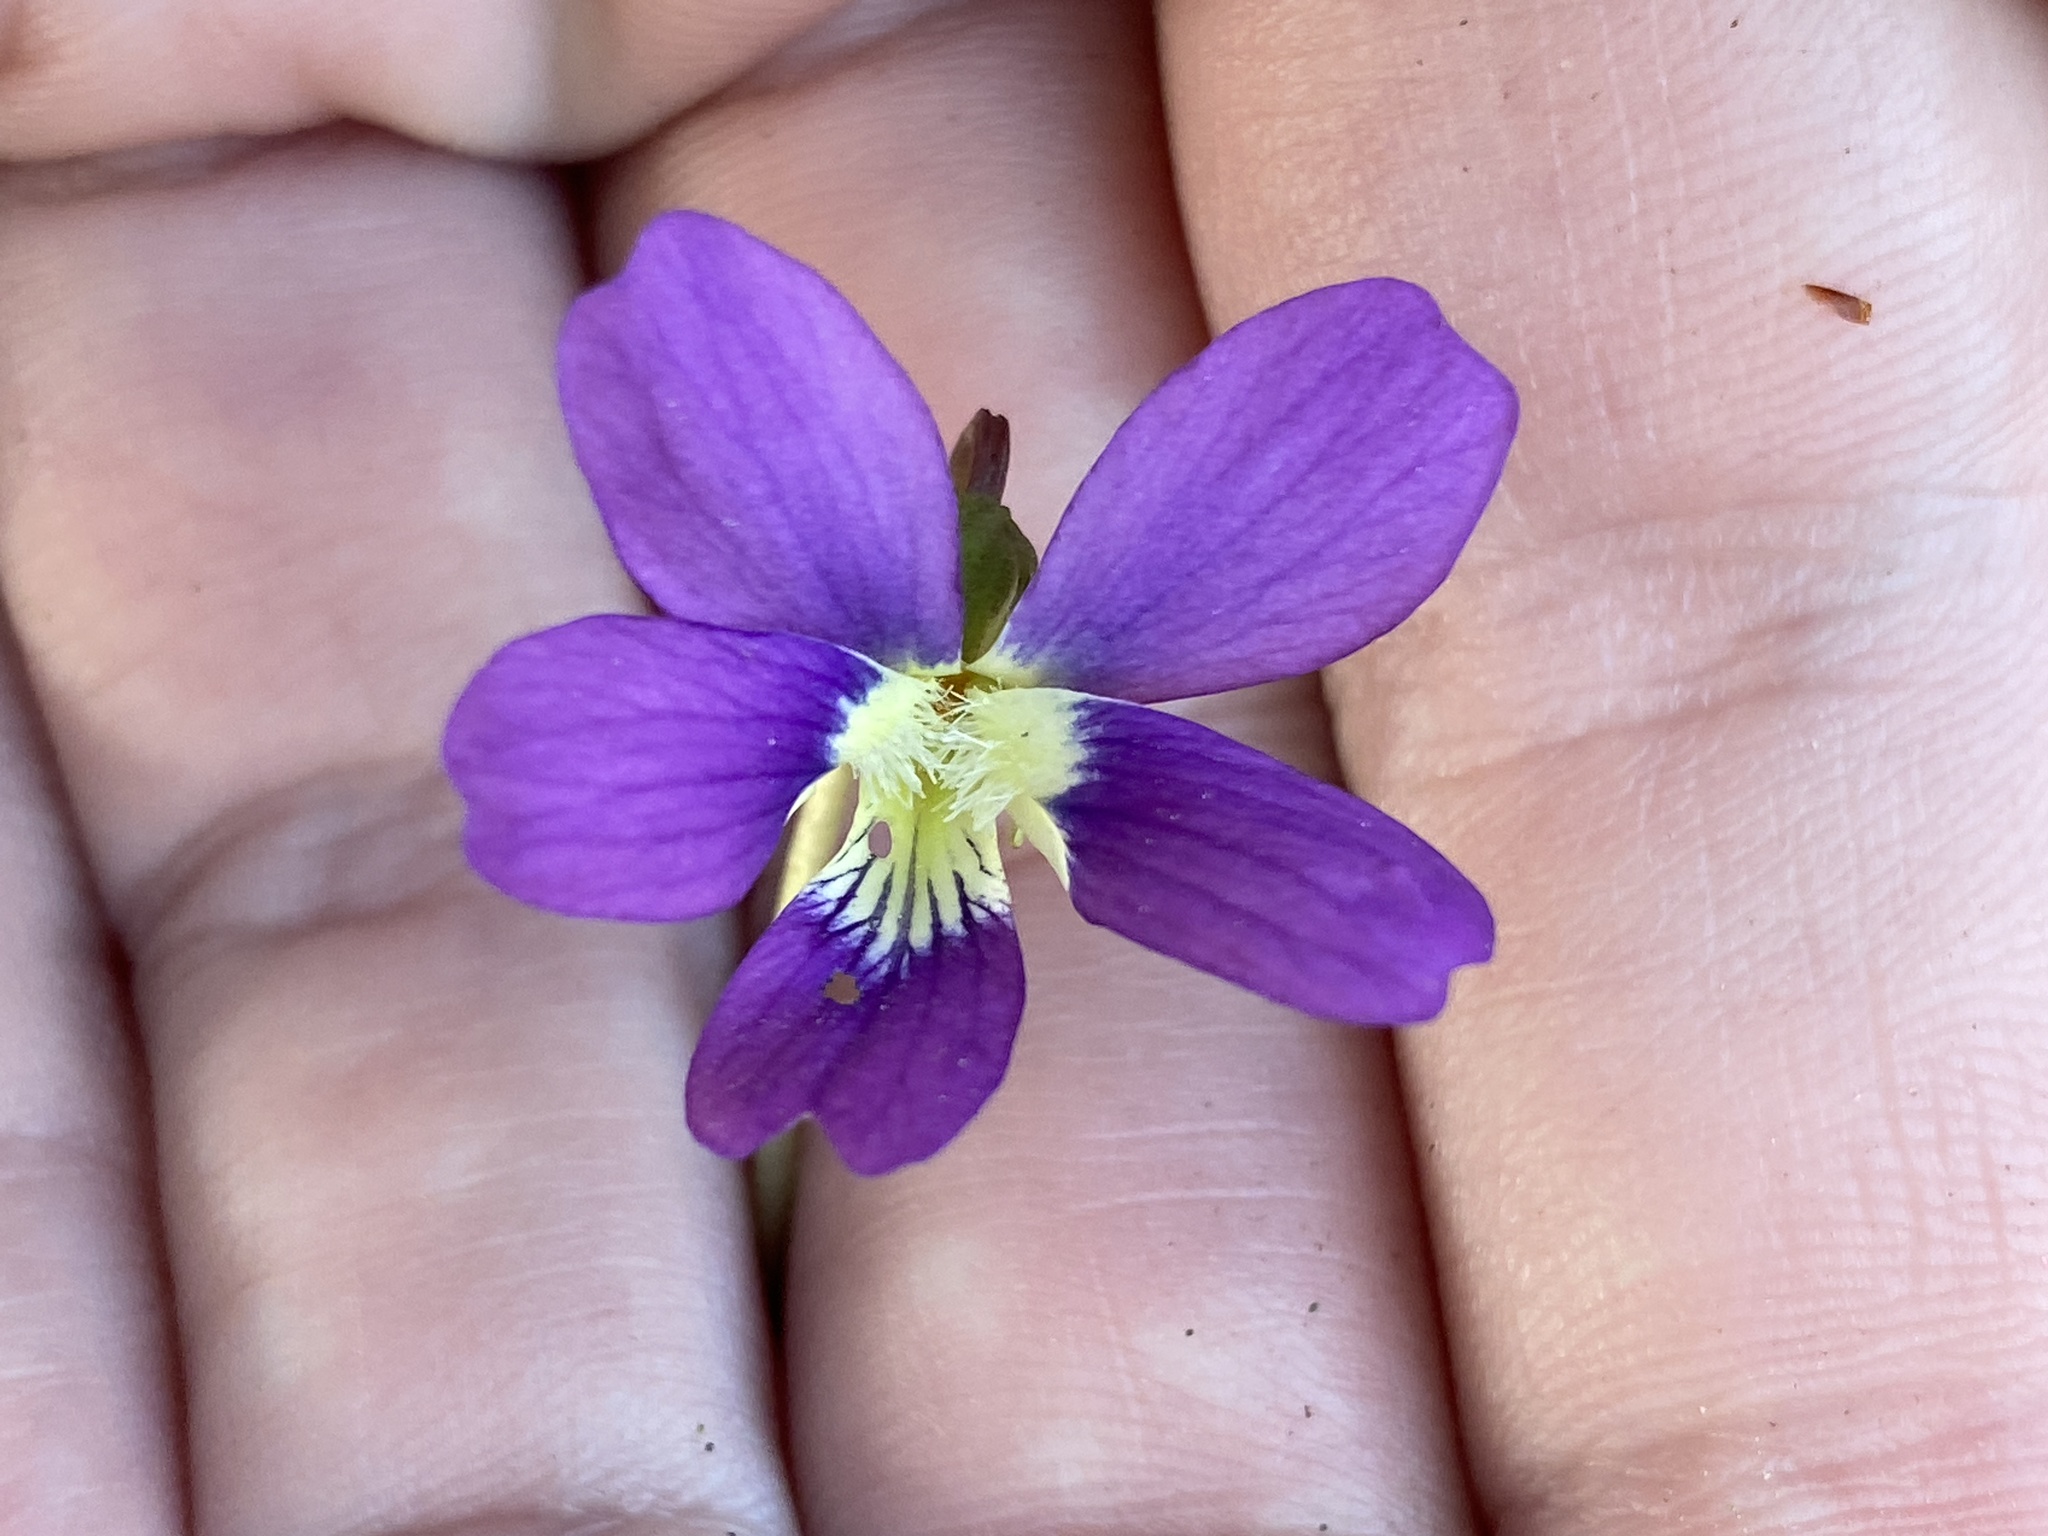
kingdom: Plantae
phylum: Tracheophyta
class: Magnoliopsida
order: Malpighiales
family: Violaceae
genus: Viola
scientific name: Viola sororia
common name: Dooryard violet
